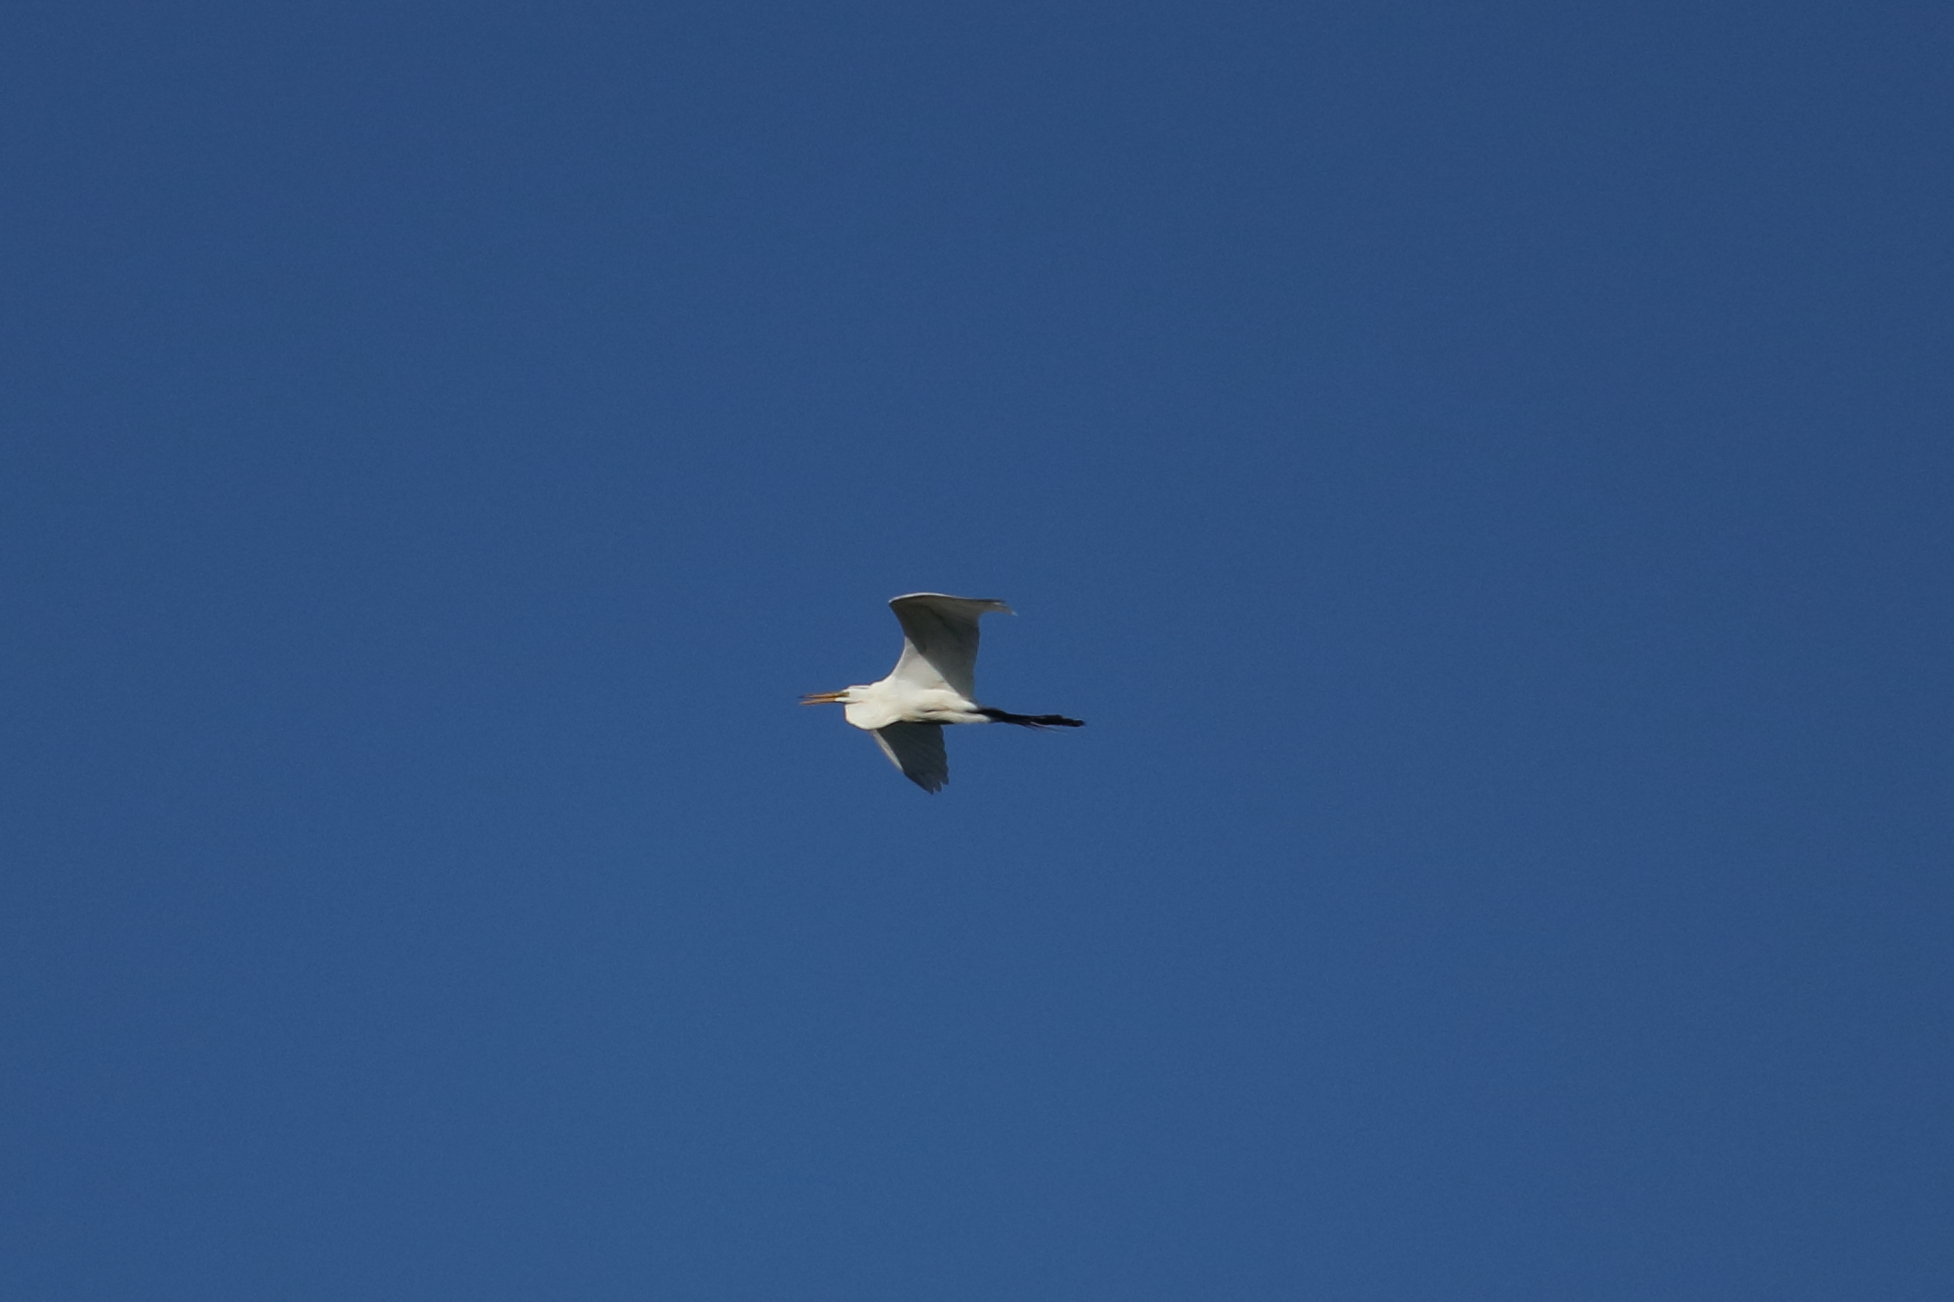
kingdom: Animalia
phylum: Chordata
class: Aves
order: Pelecaniformes
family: Ardeidae
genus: Ardea
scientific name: Ardea alba
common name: Great egret
